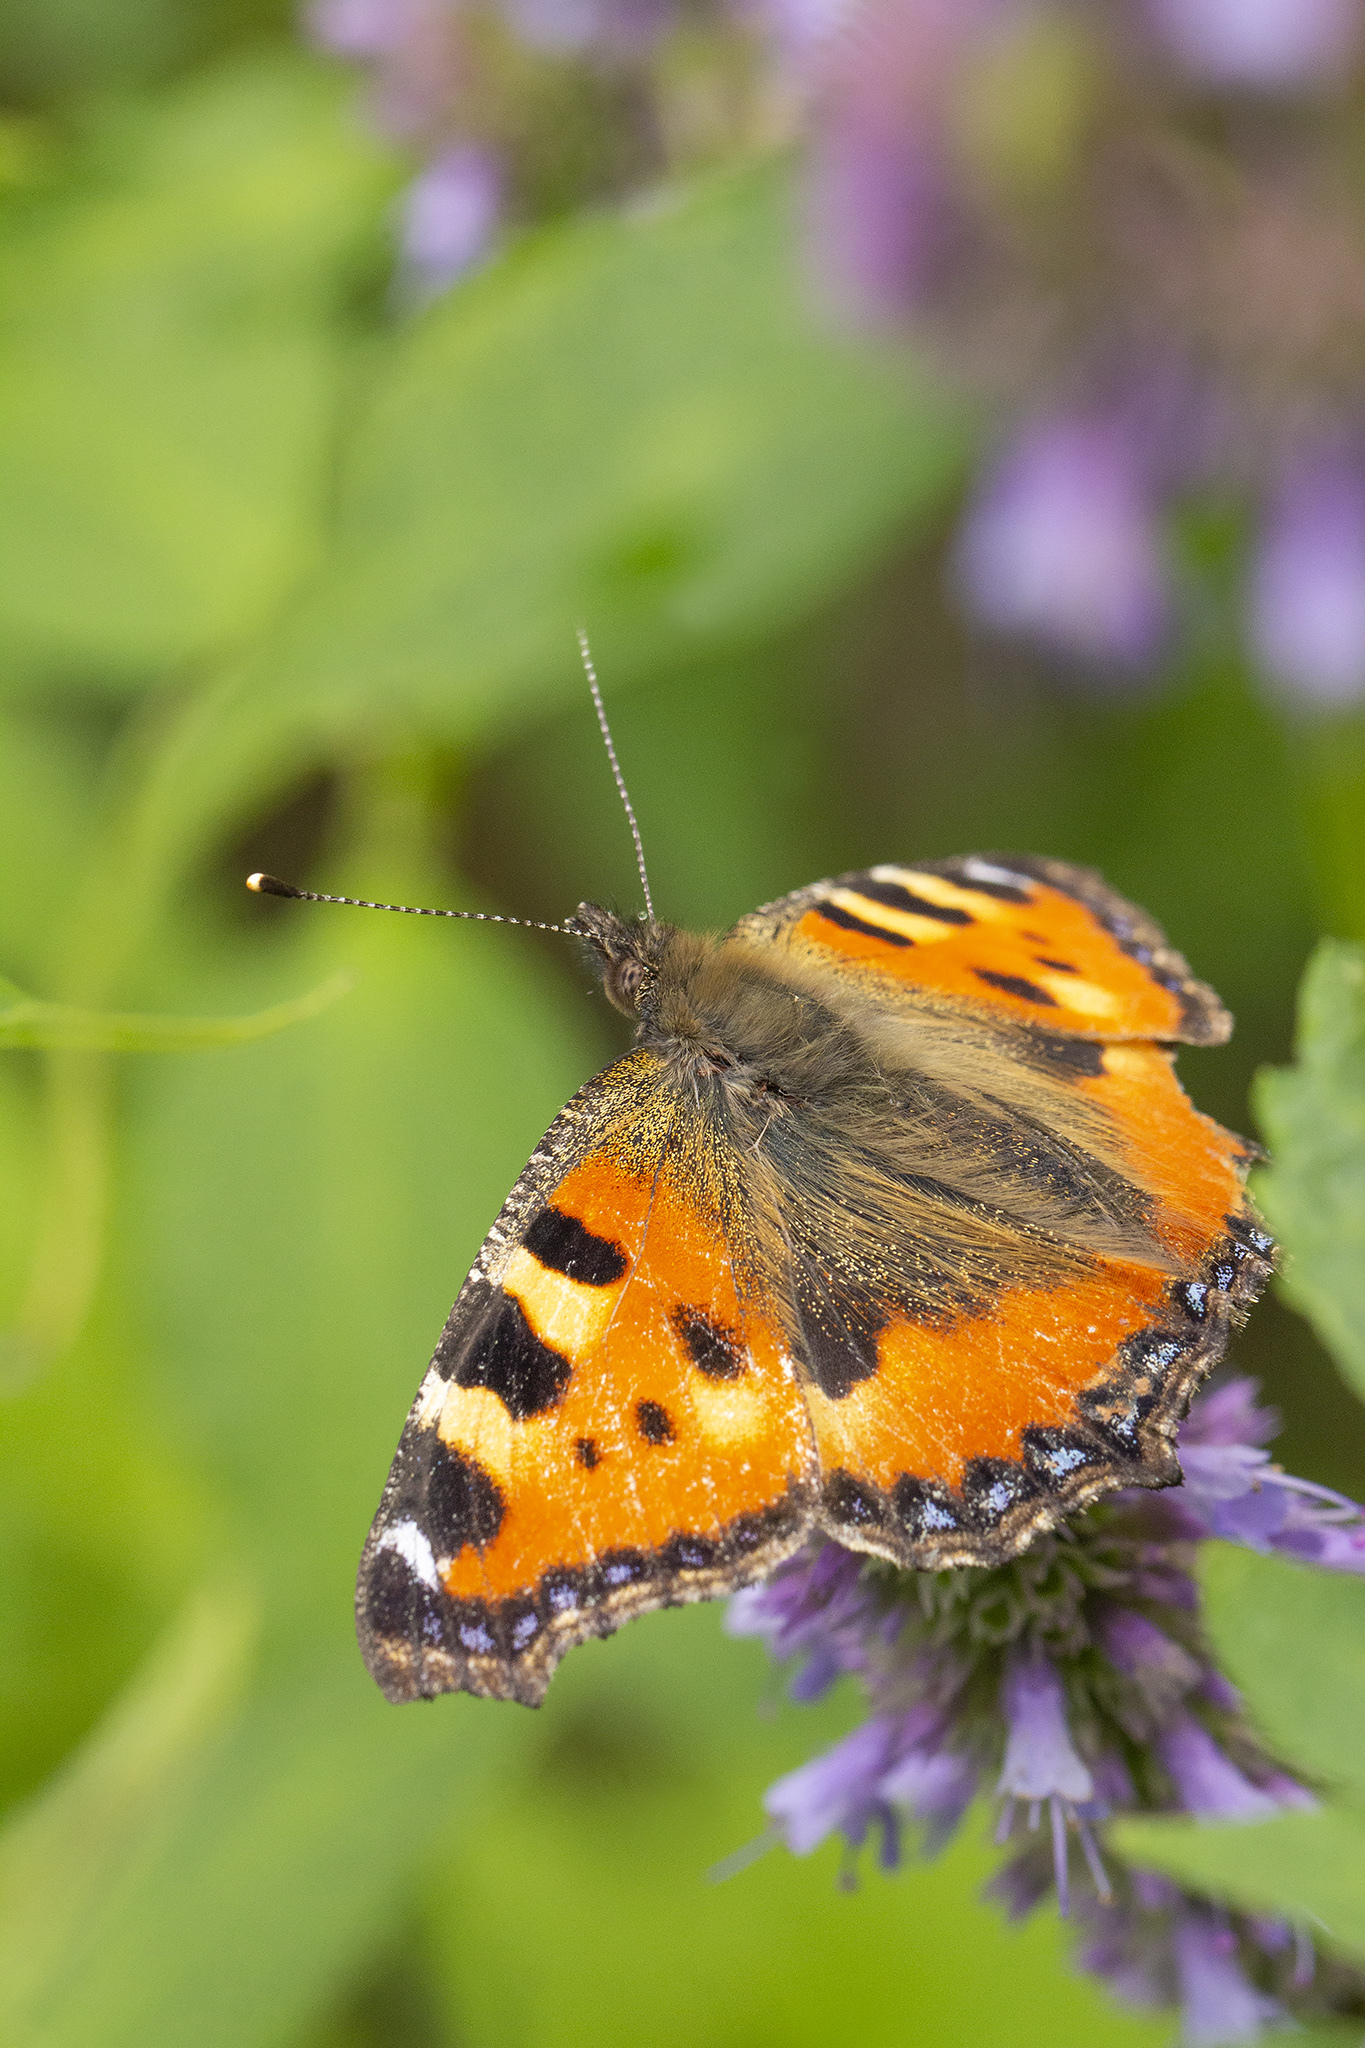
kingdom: Animalia
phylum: Arthropoda
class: Insecta
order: Lepidoptera
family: Nymphalidae
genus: Aglais
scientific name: Aglais urticae
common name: Small tortoiseshell
